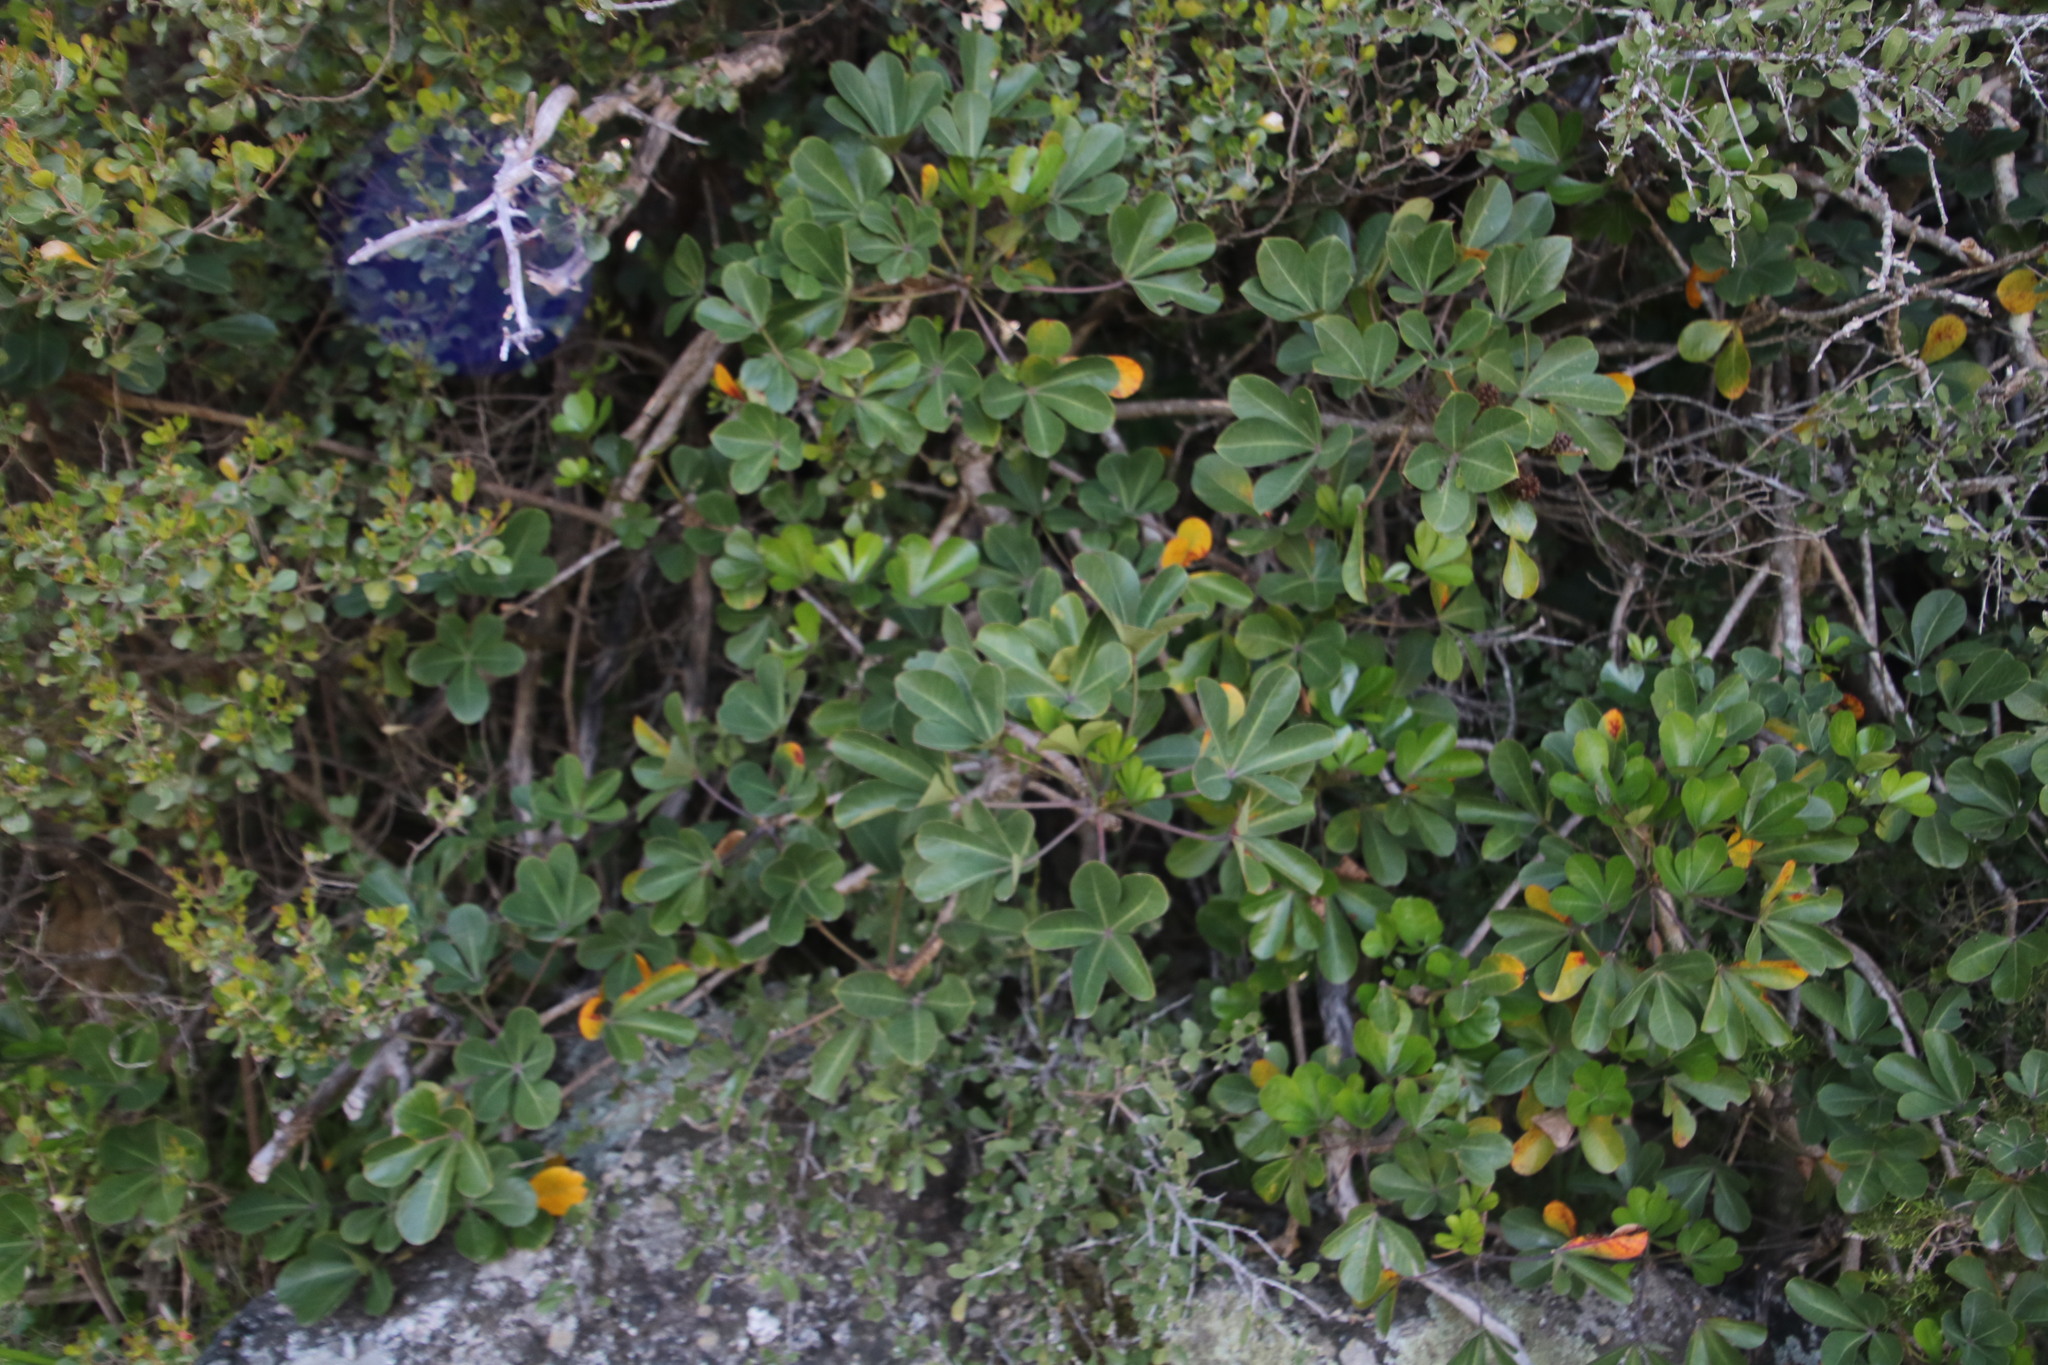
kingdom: Plantae
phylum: Tracheophyta
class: Magnoliopsida
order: Apiales
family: Araliaceae
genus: Cussonia
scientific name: Cussonia thyrsiflora
